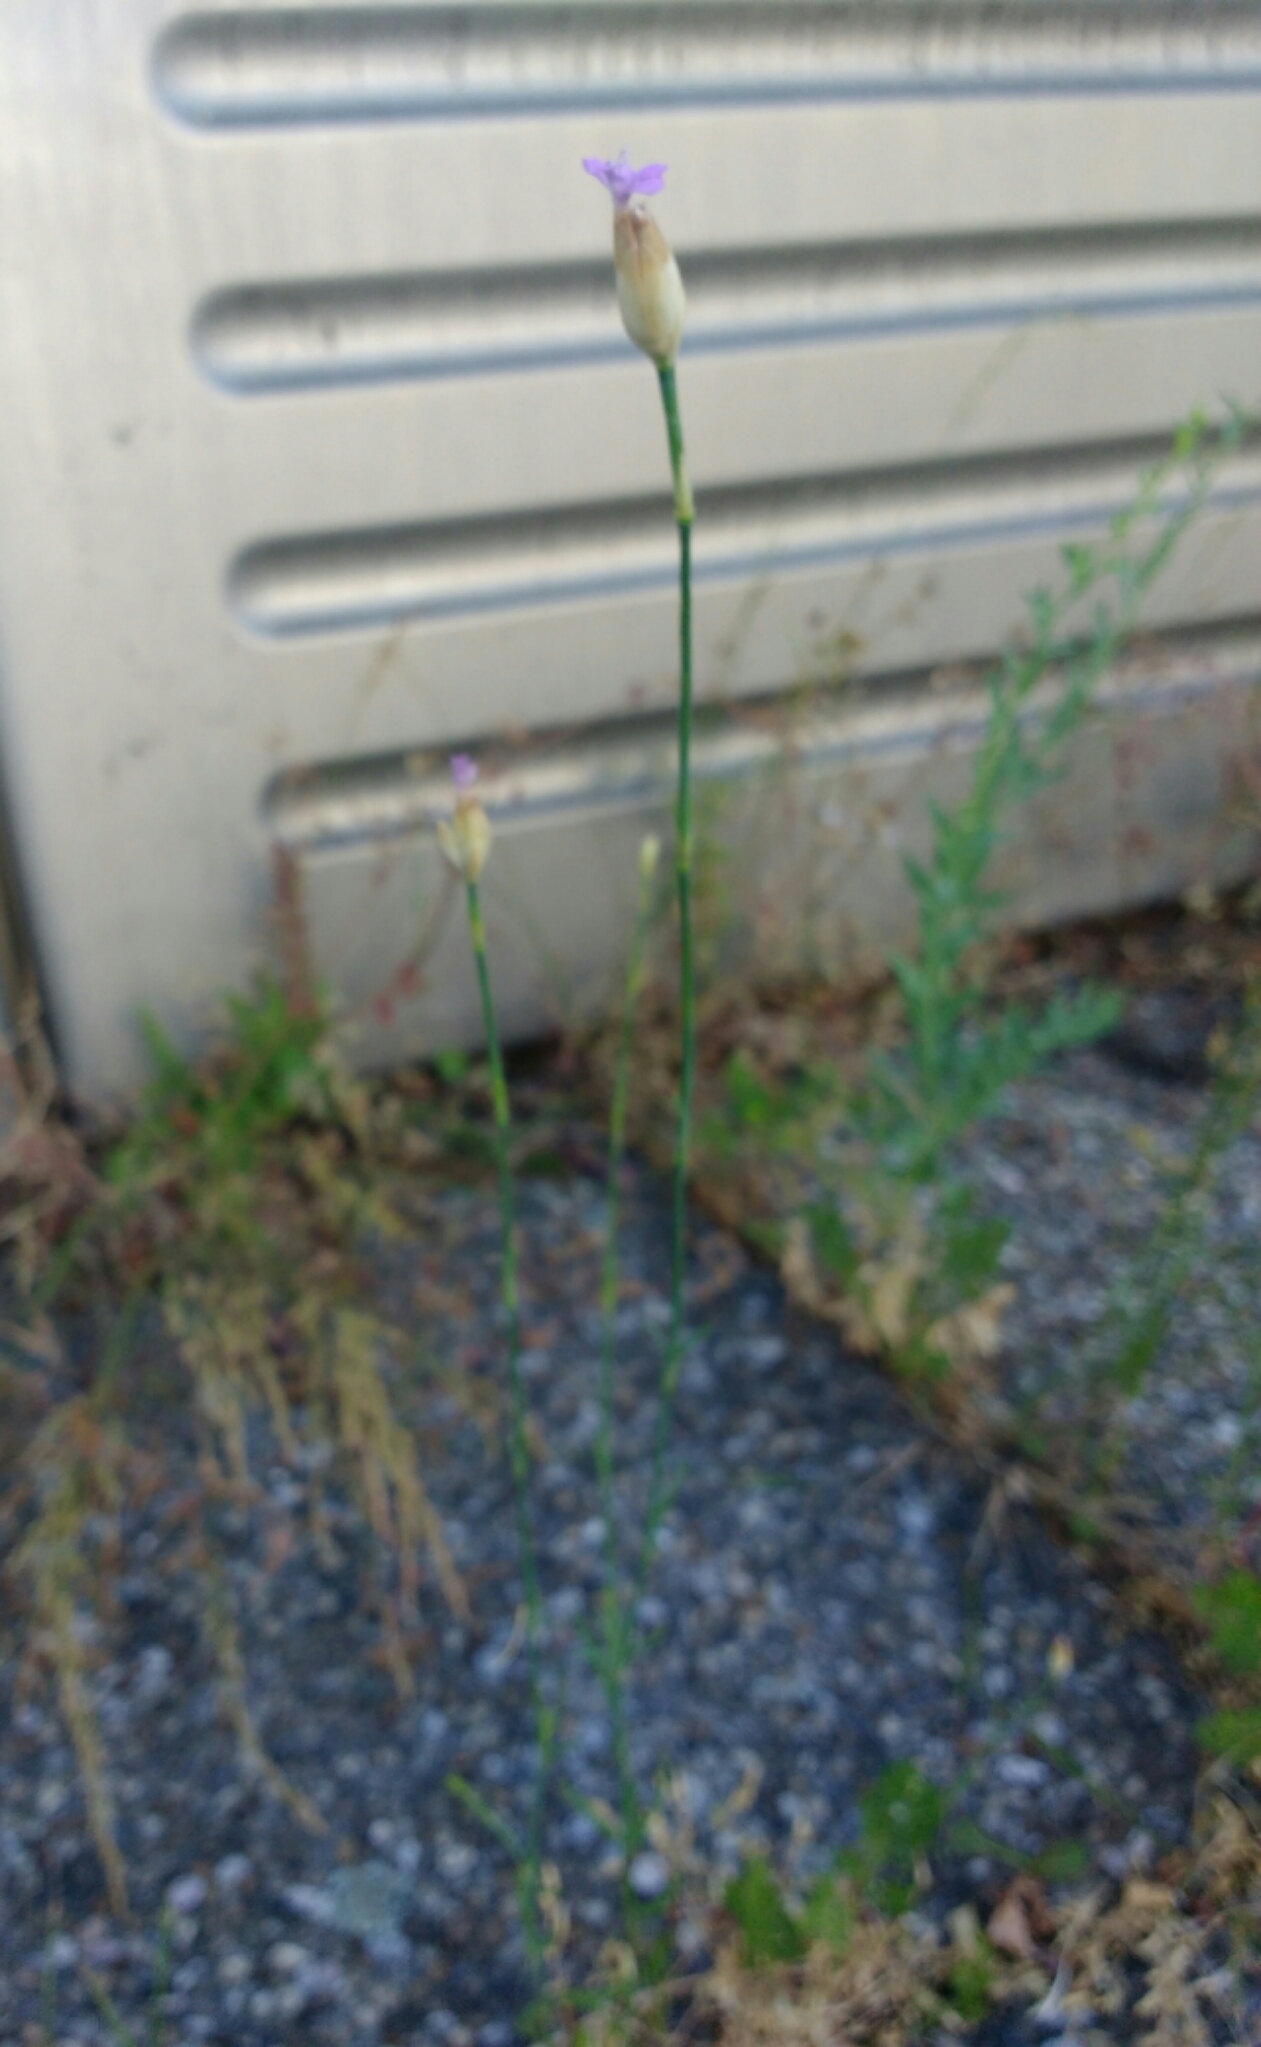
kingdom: Plantae
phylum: Tracheophyta
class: Magnoliopsida
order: Caryophyllales
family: Caryophyllaceae
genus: Petrorhagia
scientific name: Petrorhagia prolifera
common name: Proliferous pink
